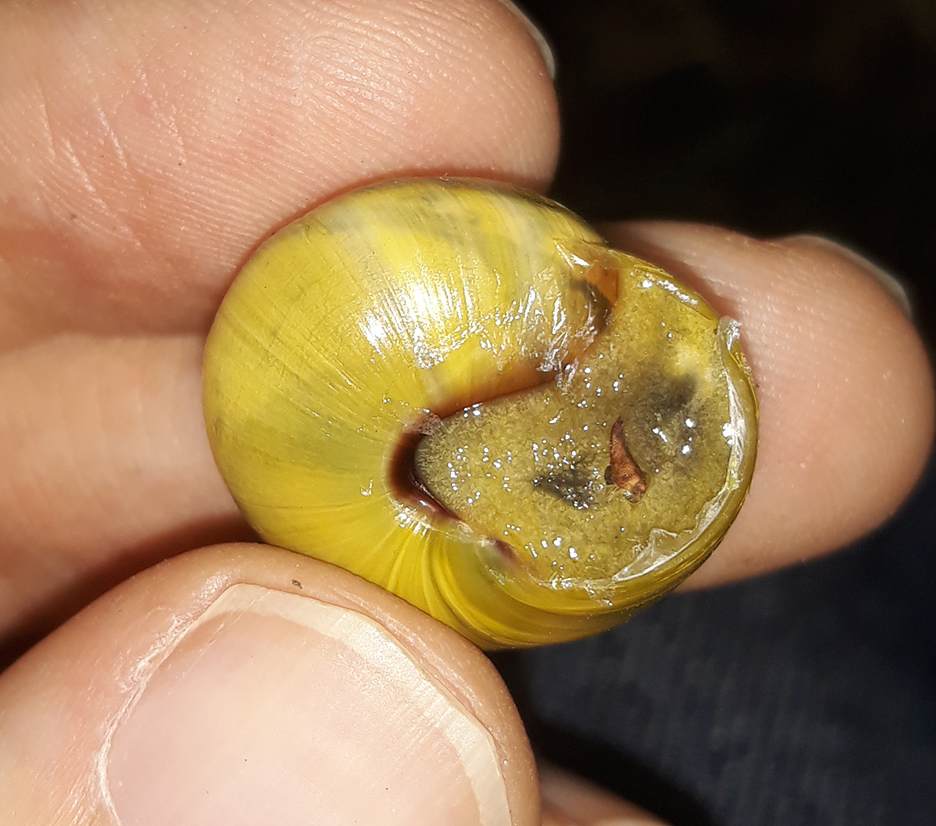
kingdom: Animalia
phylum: Mollusca
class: Gastropoda
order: Stylommatophora
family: Helicidae
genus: Cepaea
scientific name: Cepaea nemoralis
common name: Grovesnail
